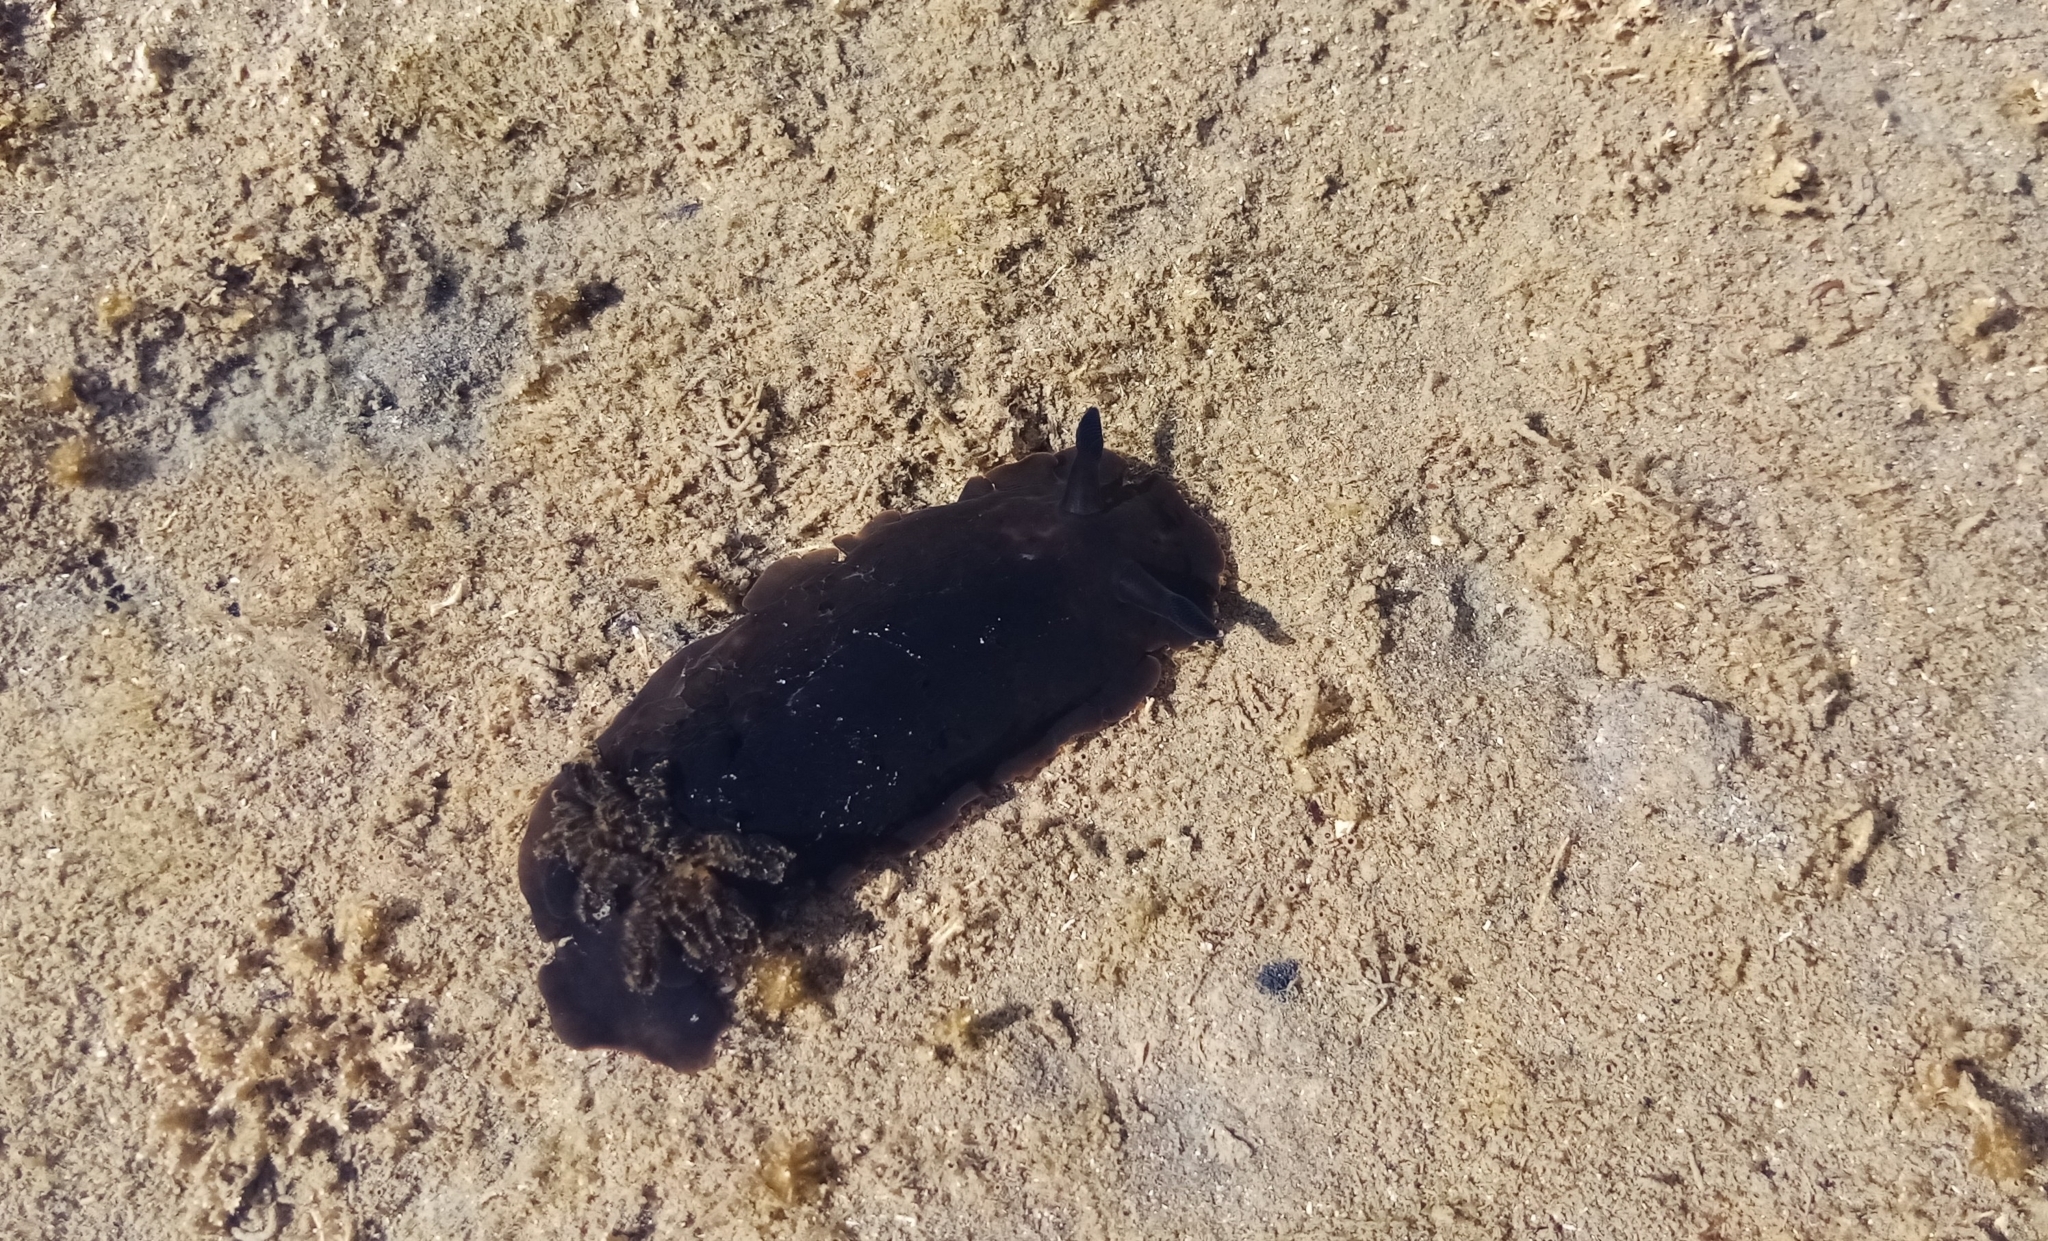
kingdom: Animalia
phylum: Mollusca
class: Gastropoda
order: Nudibranchia
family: Dendrodorididae
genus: Dendrodoris
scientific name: Dendrodoris nigra
